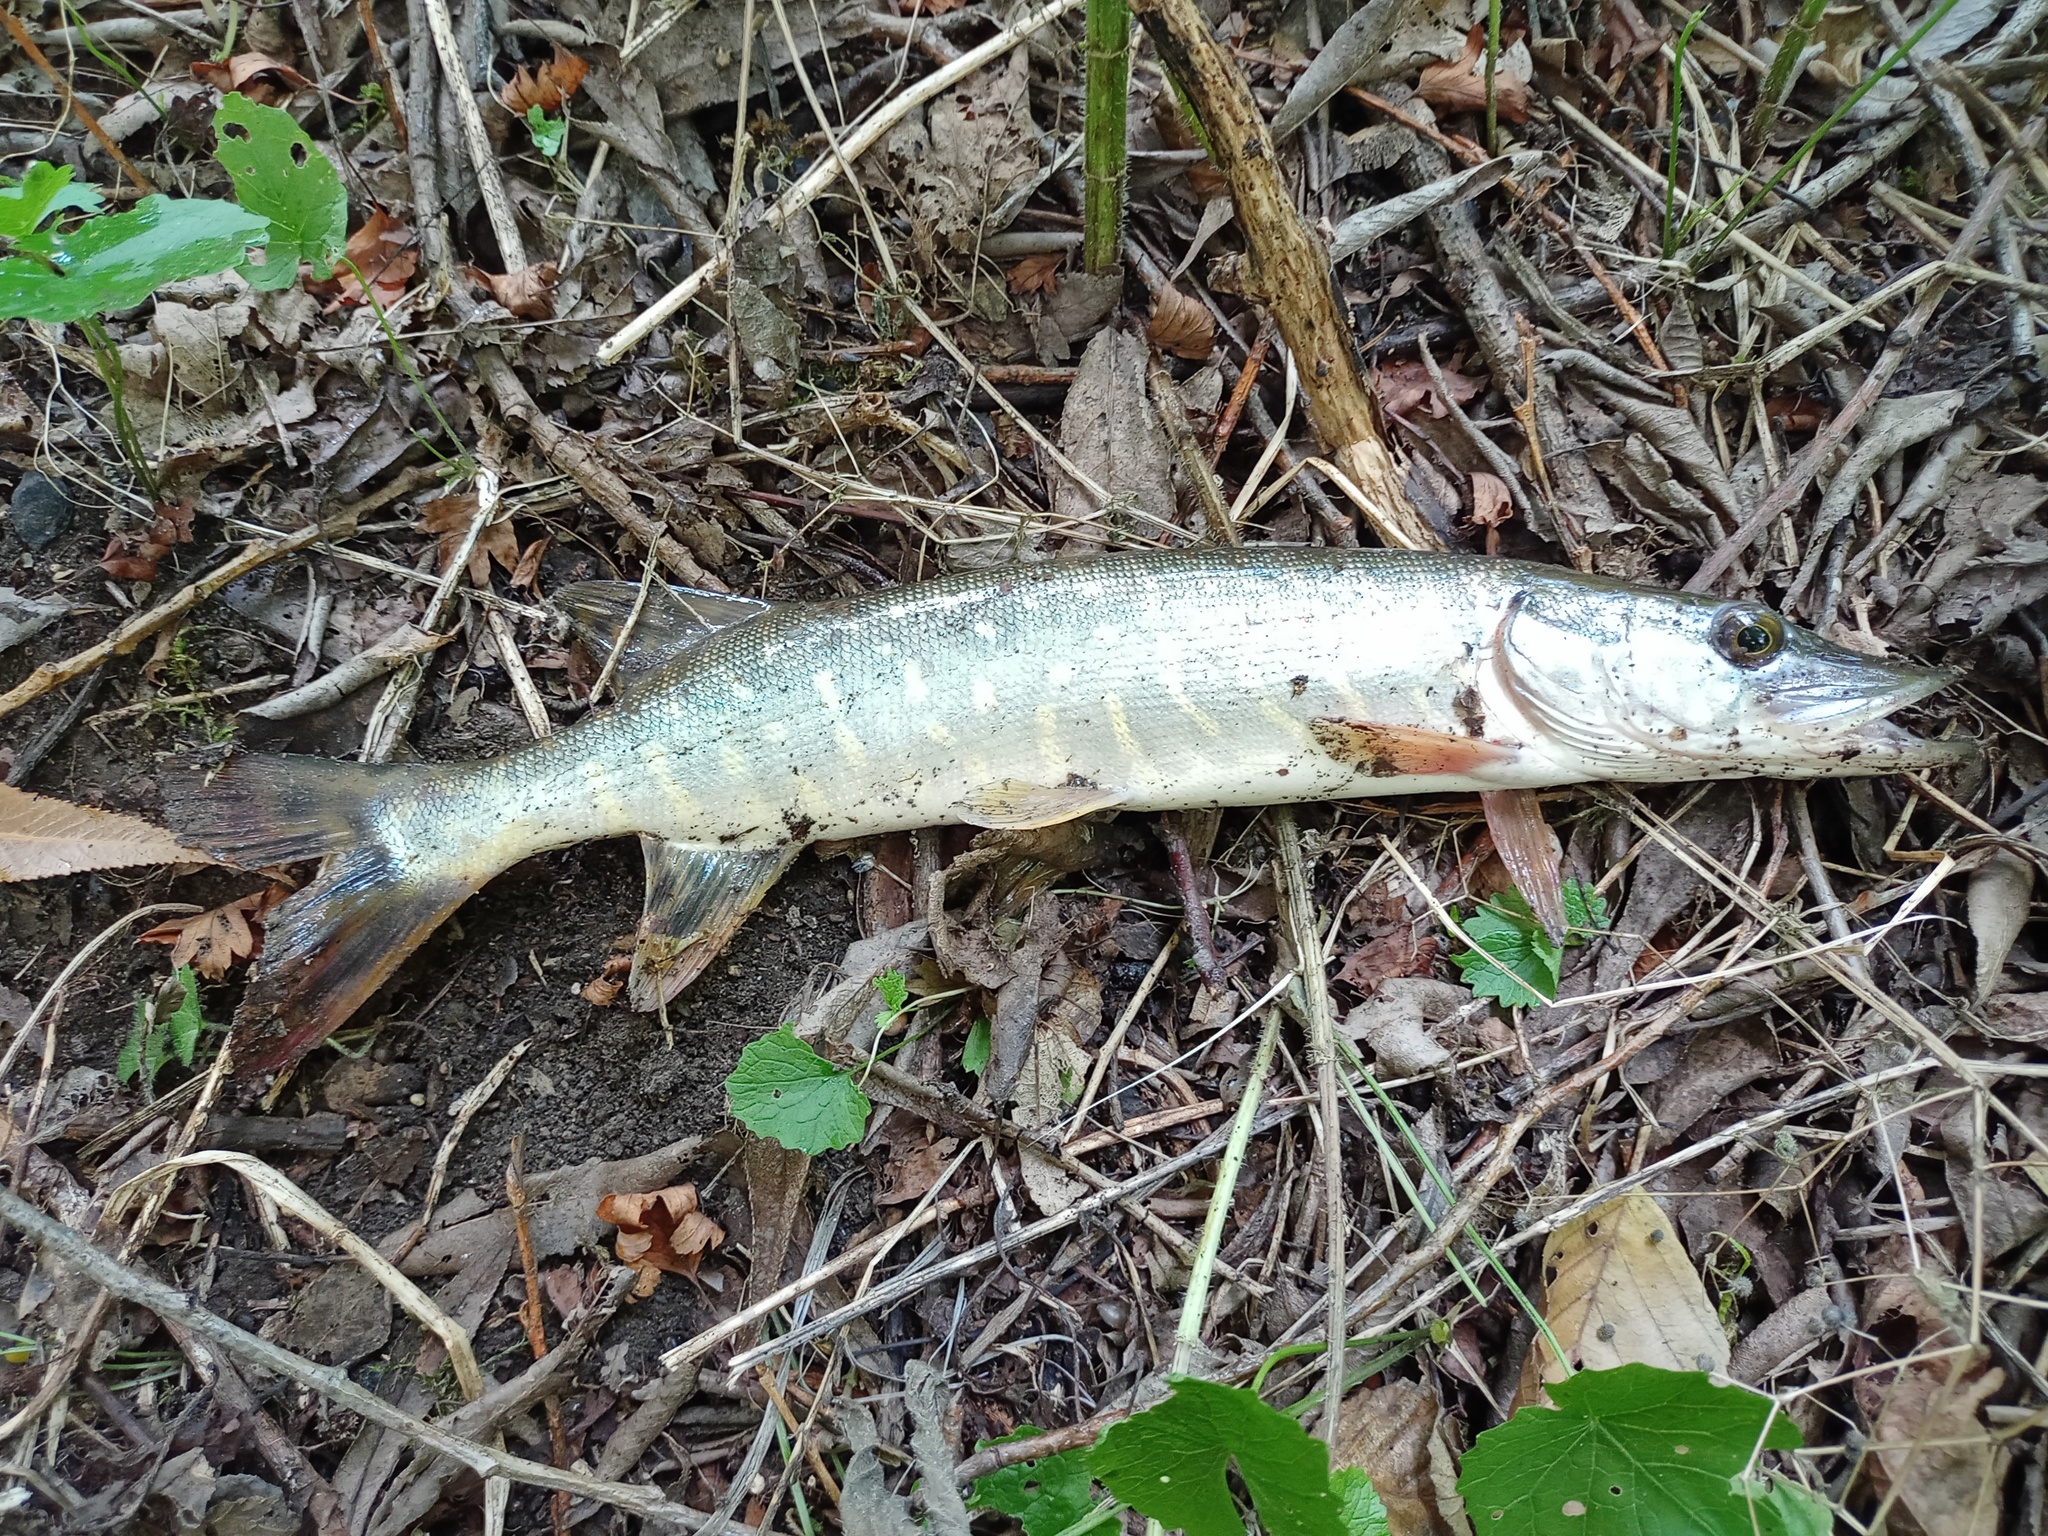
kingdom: Animalia
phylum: Chordata
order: Esociformes
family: Esocidae
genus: Esox
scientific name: Esox lucius
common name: Northern pike
